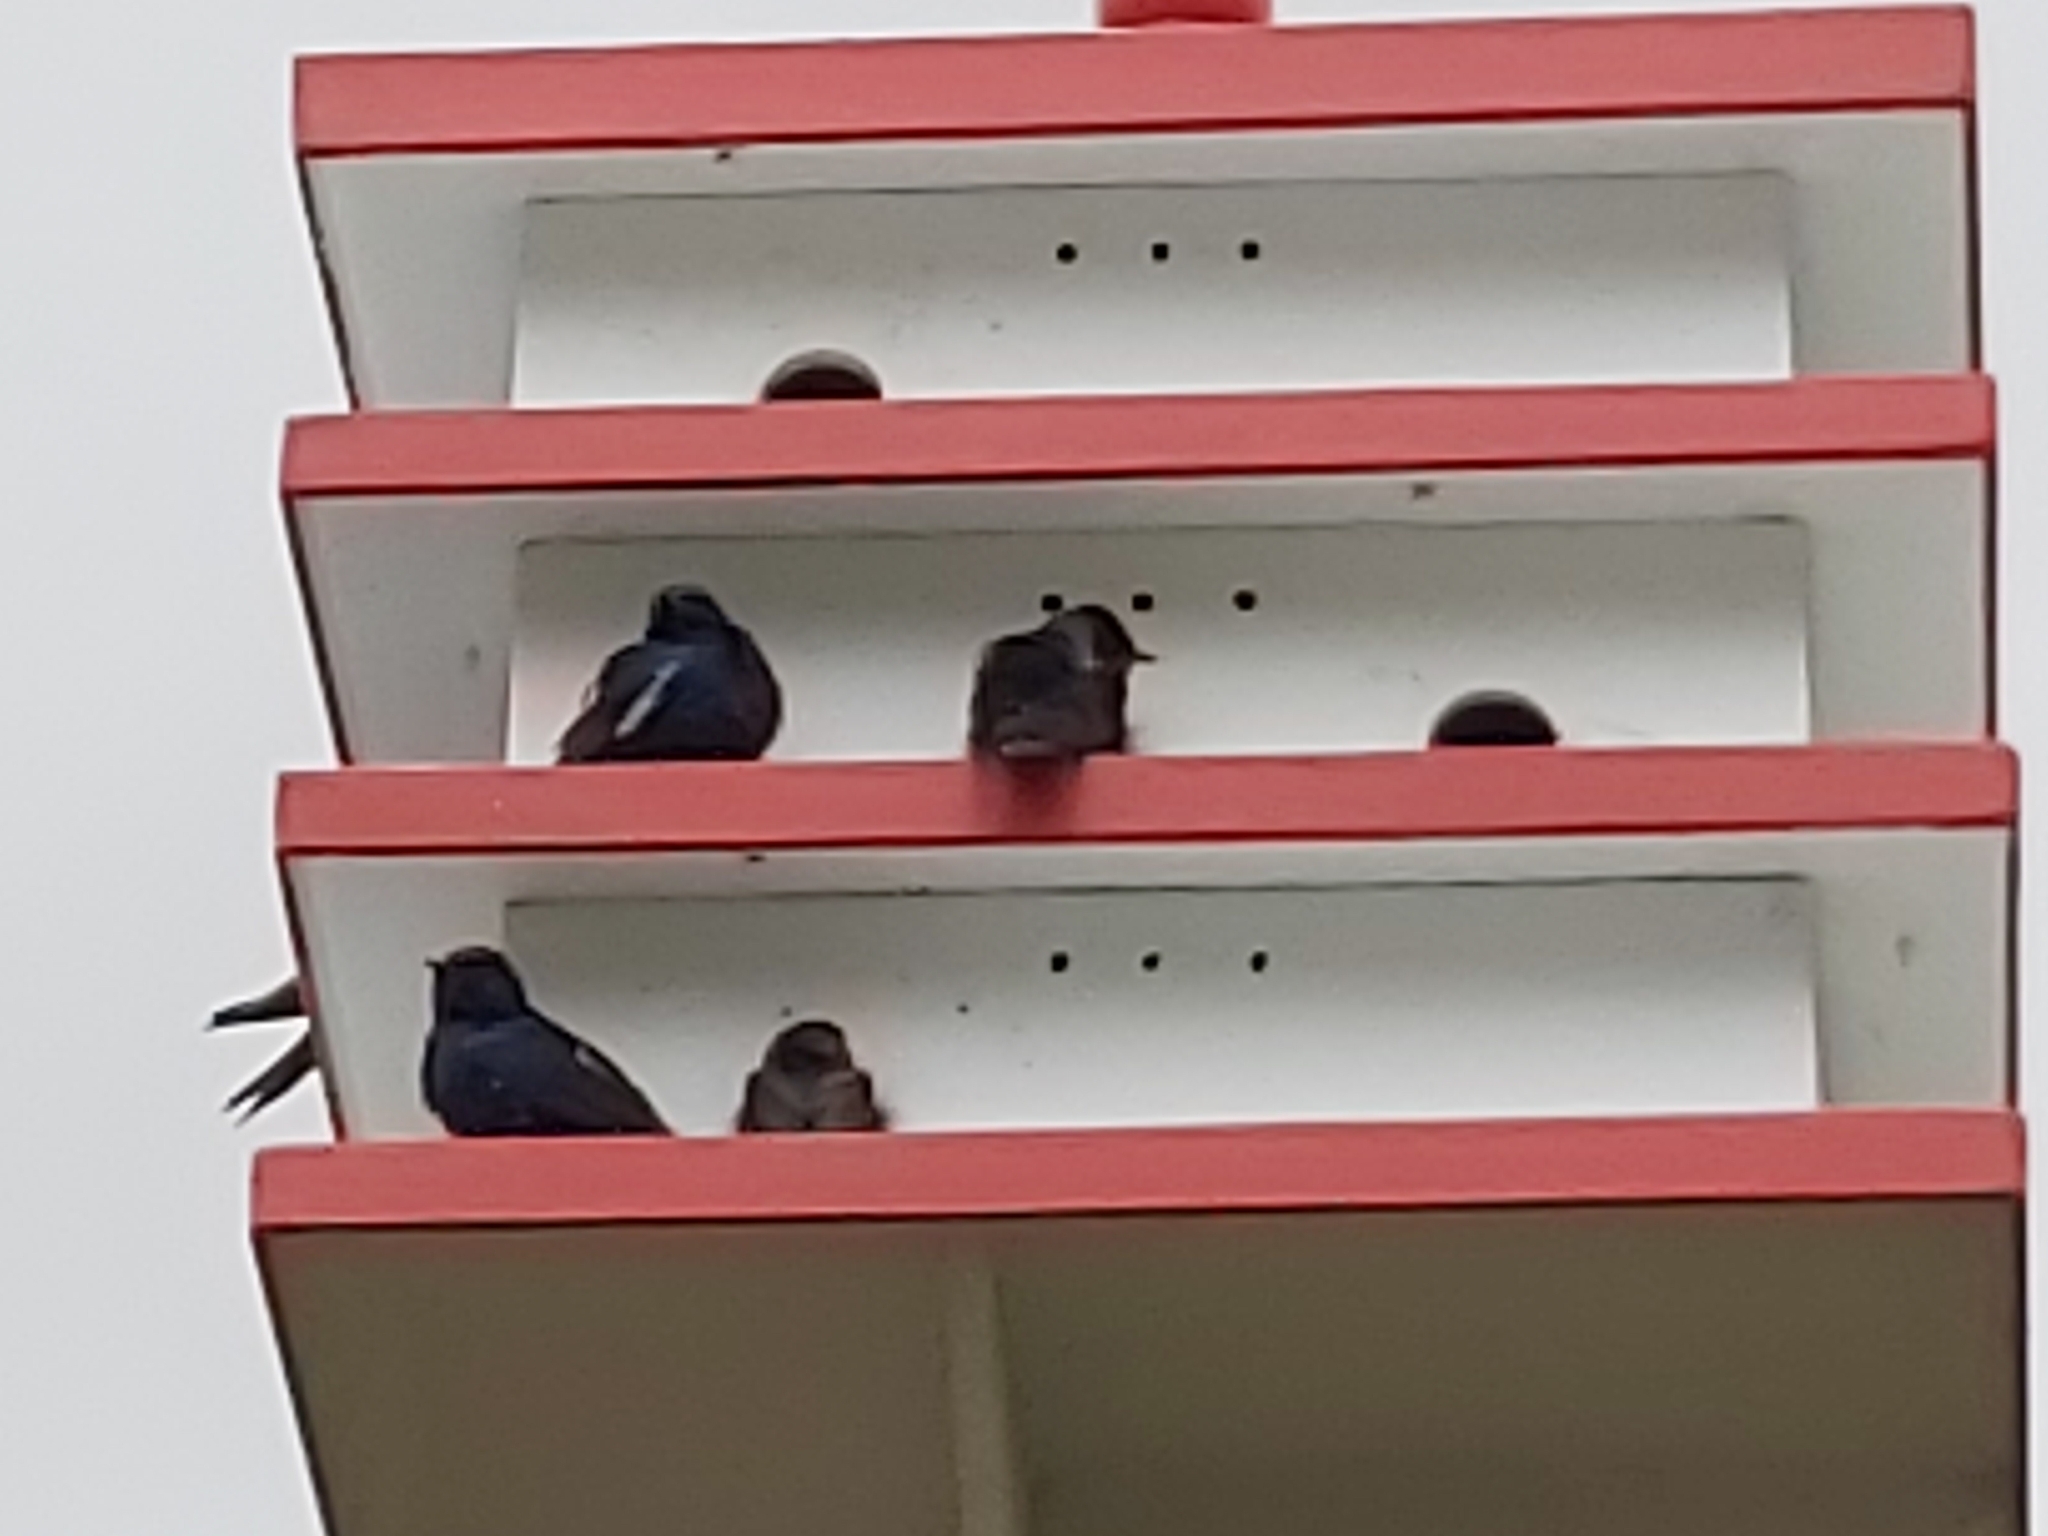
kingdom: Animalia
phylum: Chordata
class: Aves
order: Passeriformes
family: Hirundinidae
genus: Progne
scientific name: Progne subis
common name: Purple martin
